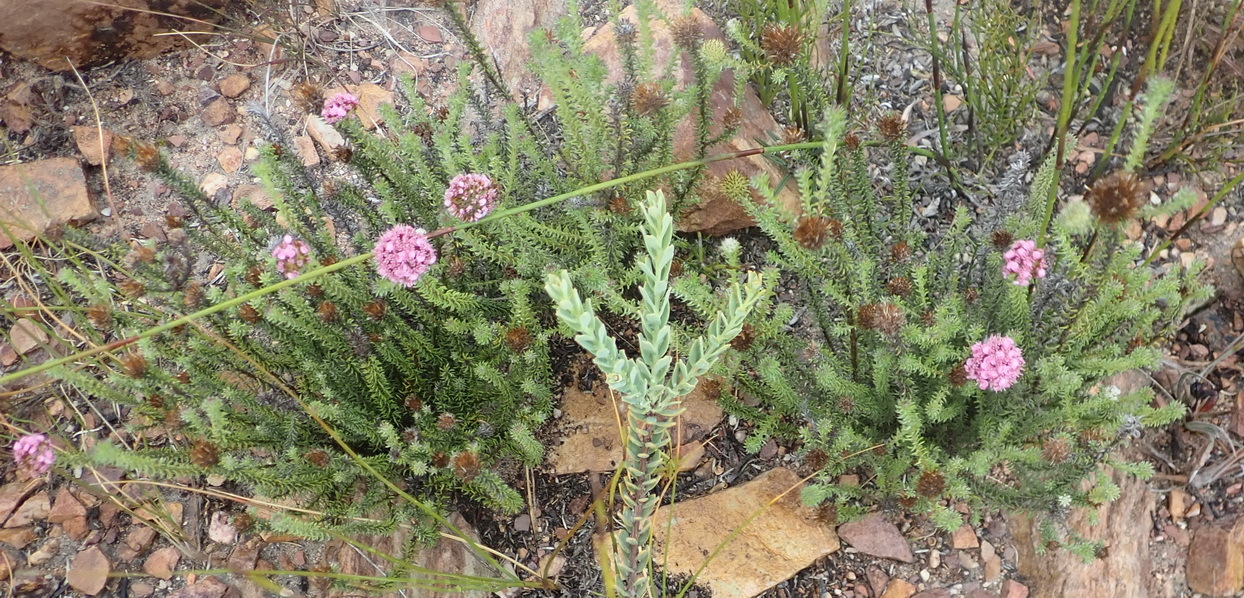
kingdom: Plantae
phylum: Tracheophyta
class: Magnoliopsida
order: Asterales
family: Asteraceae
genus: Disparago
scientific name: Disparago tortilis
